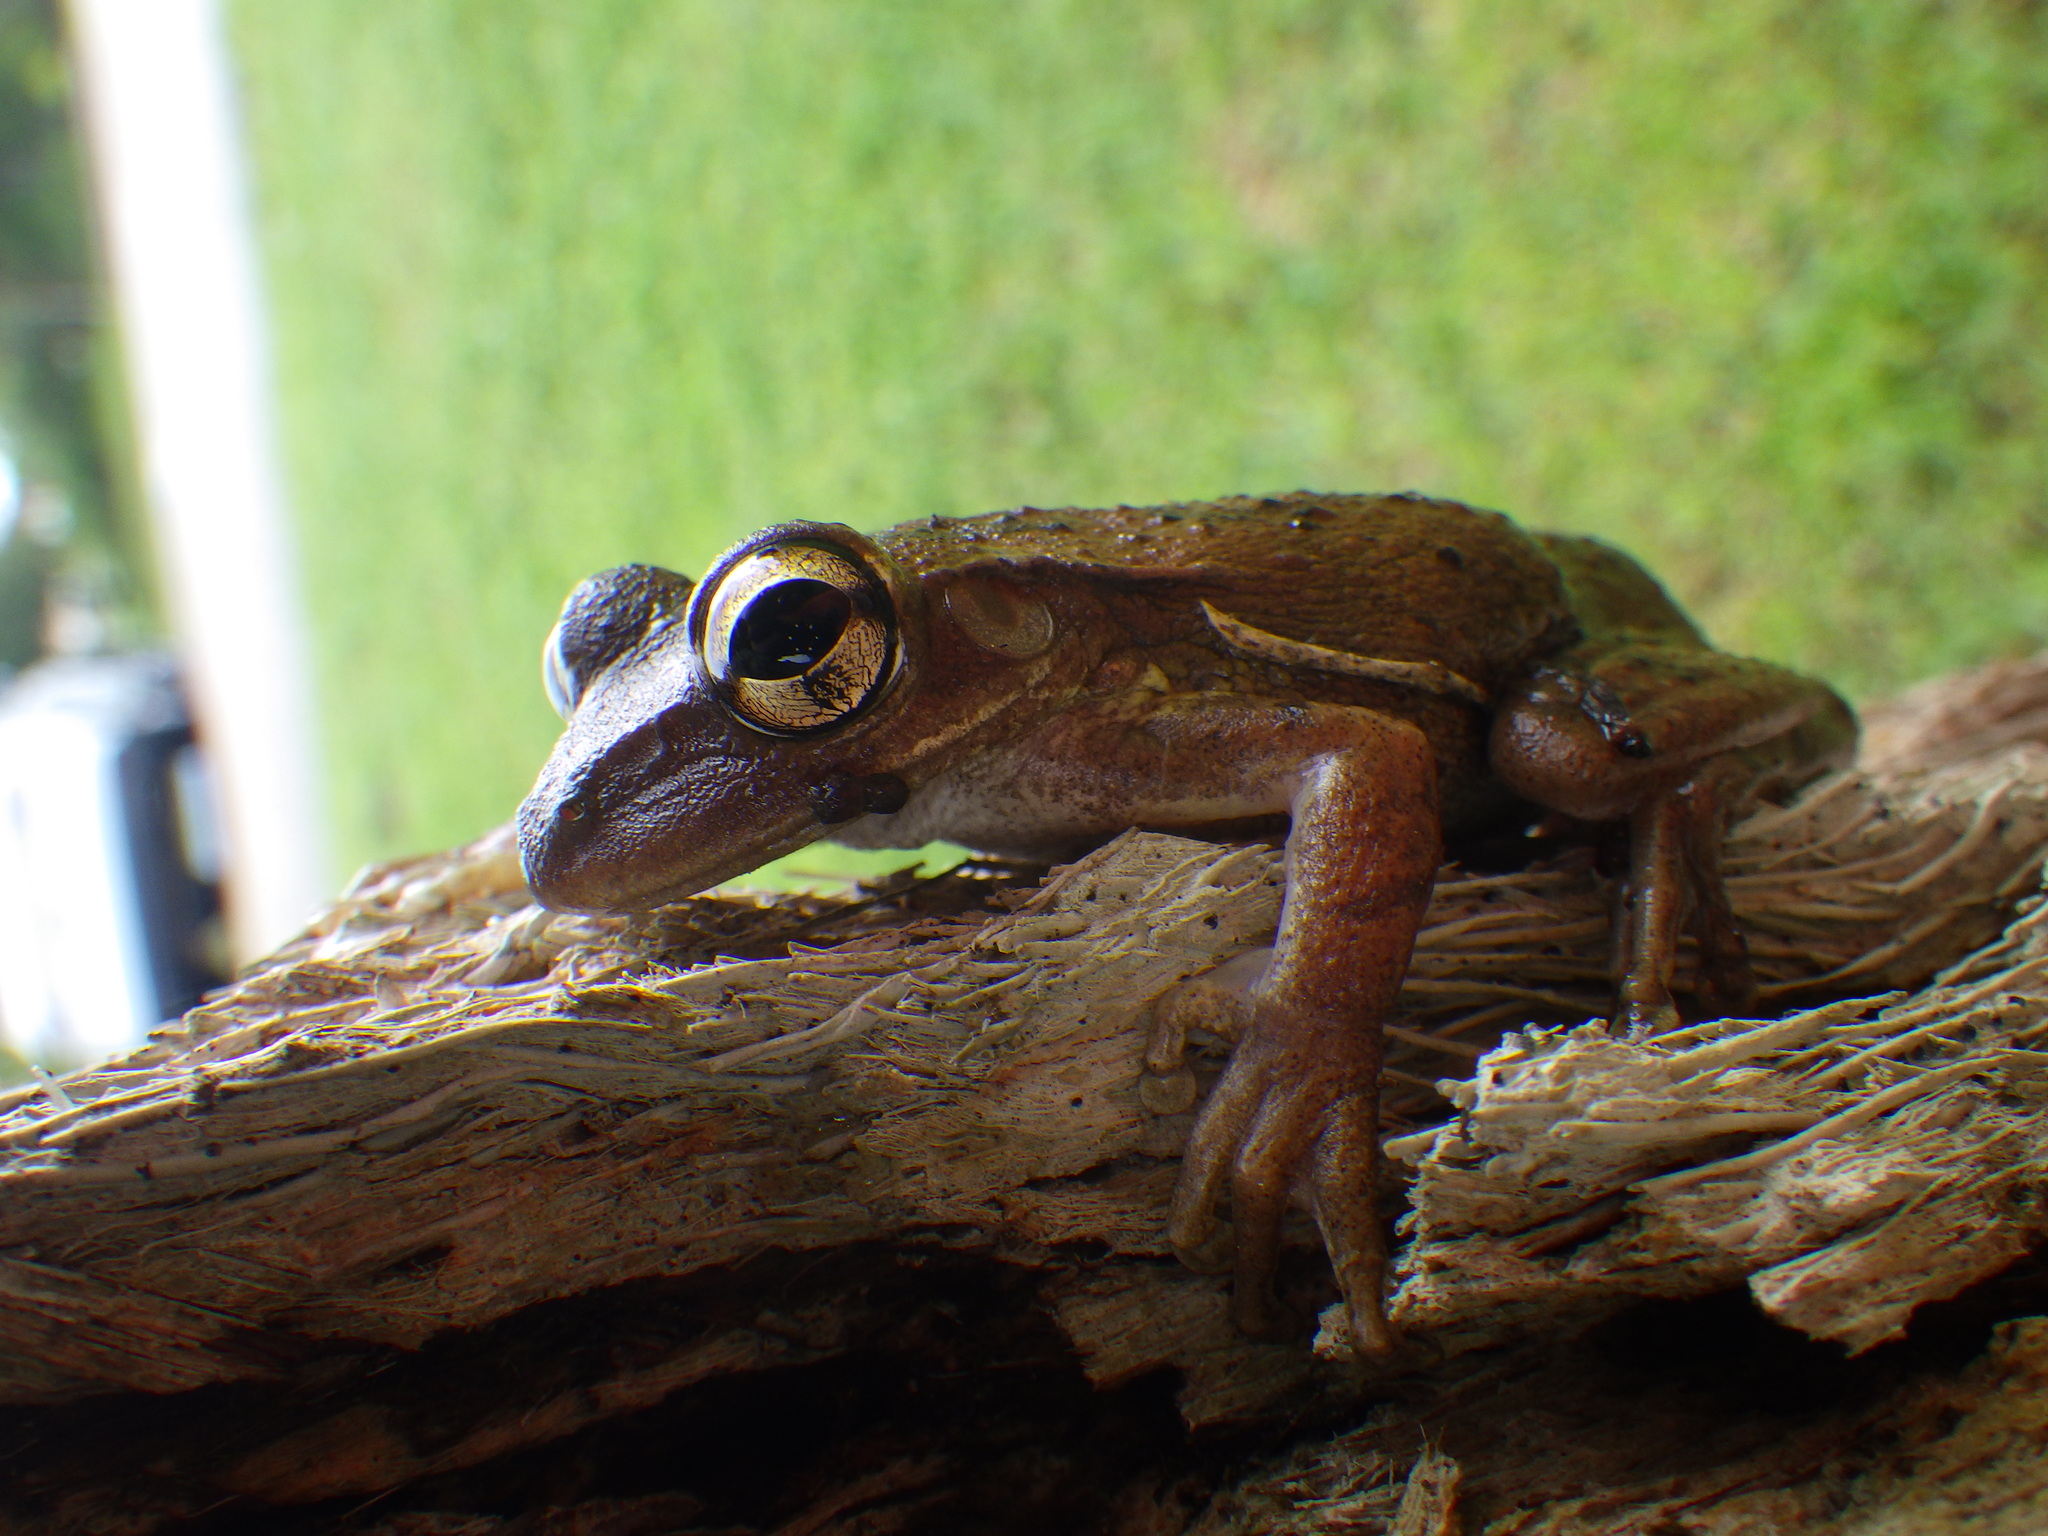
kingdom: Animalia
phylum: Chordata
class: Amphibia
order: Anura
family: Hylidae
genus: Osteopilus
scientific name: Osteopilus septentrionalis
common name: Cuban treefrog
